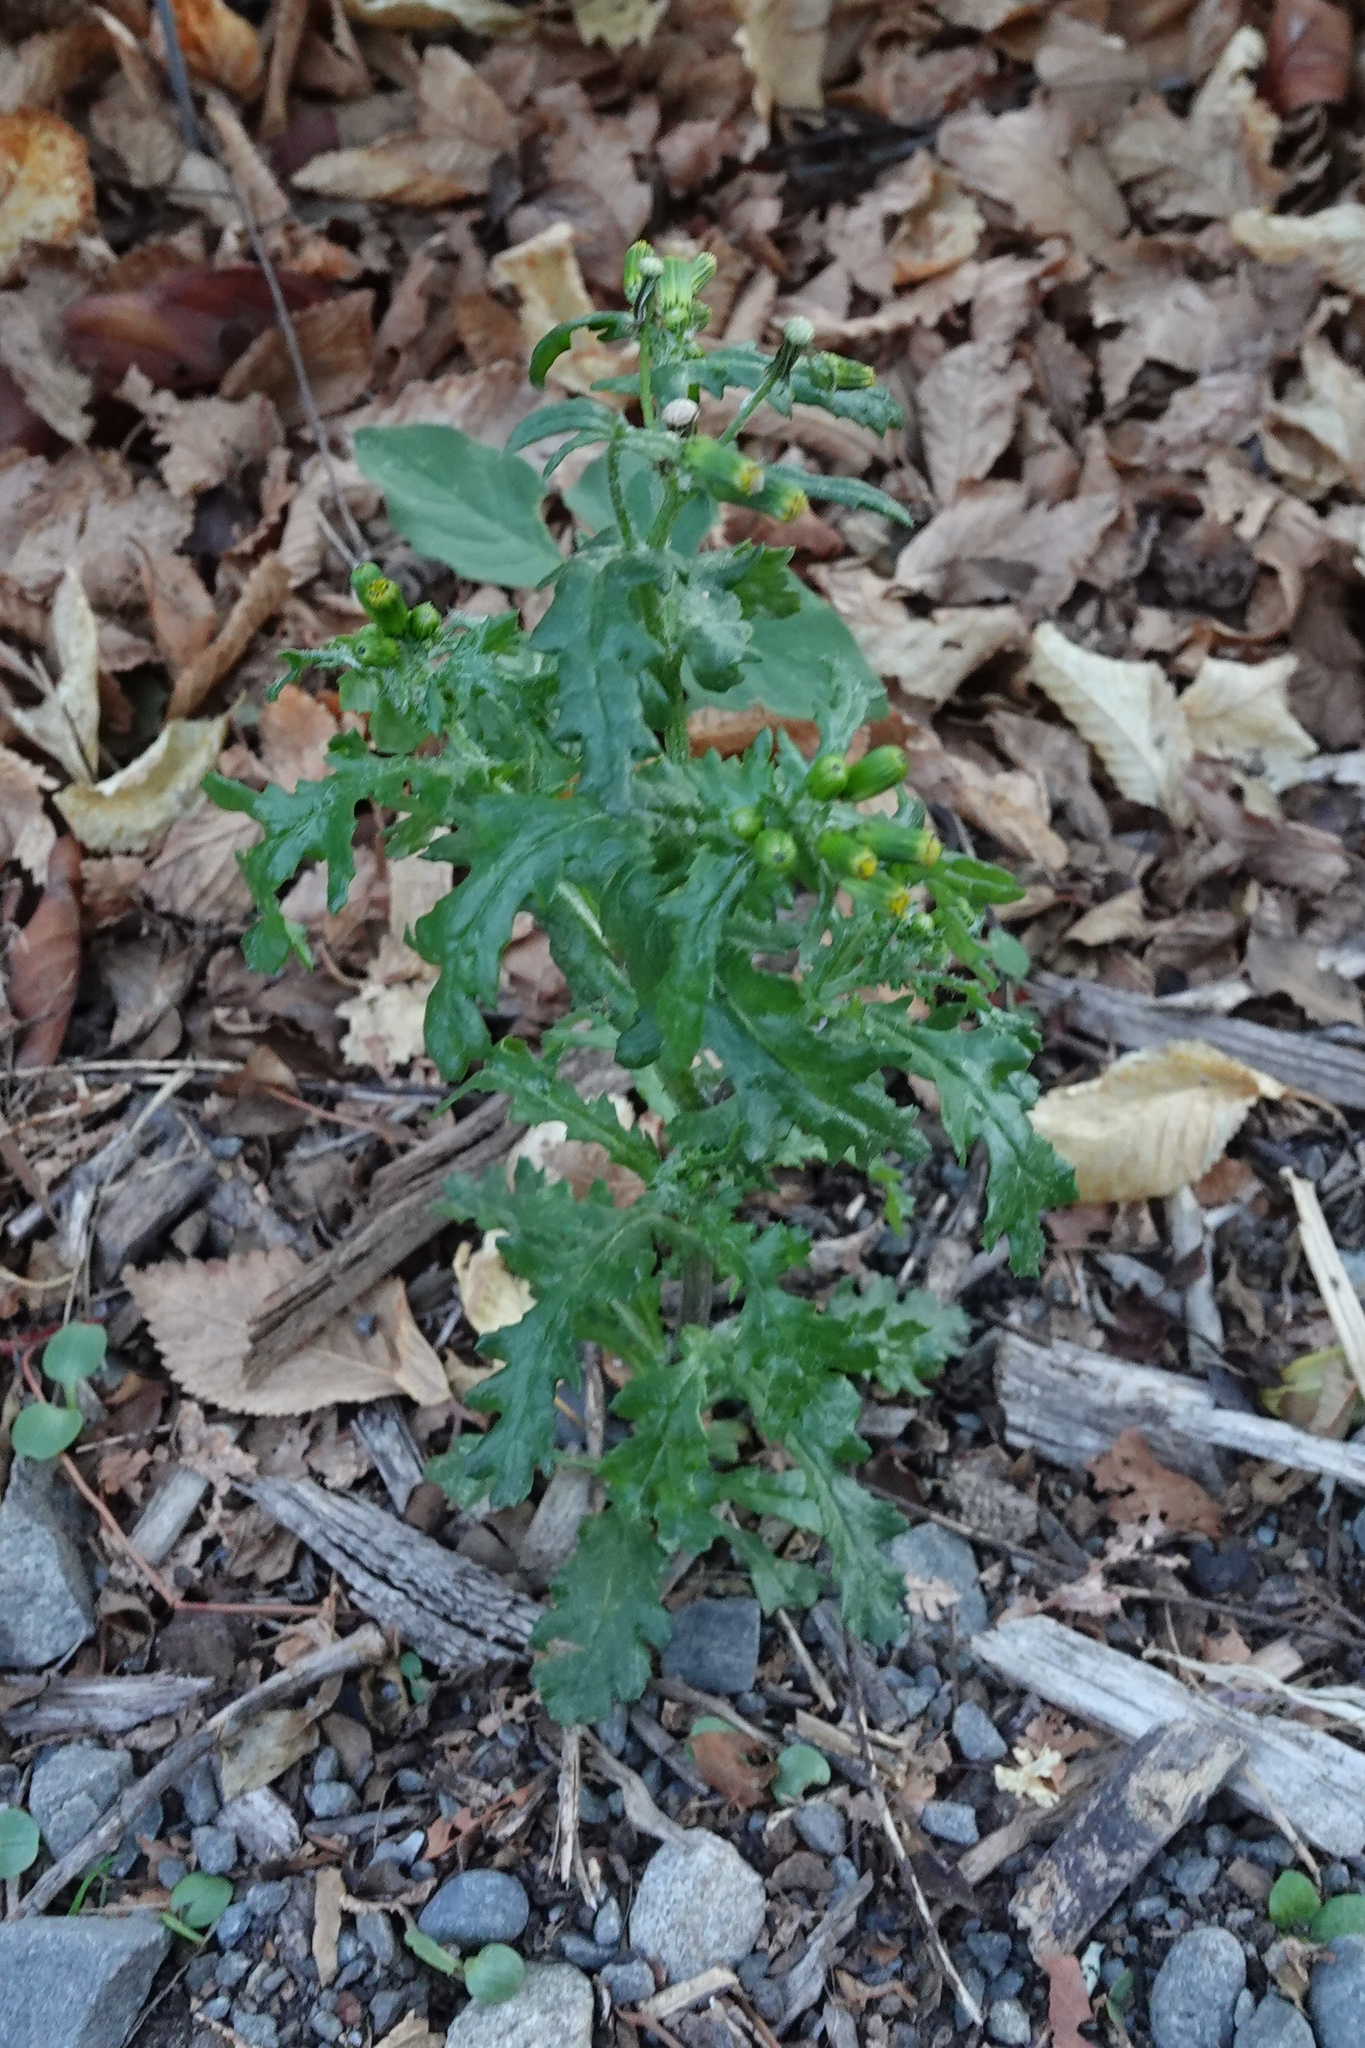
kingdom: Plantae
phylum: Tracheophyta
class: Magnoliopsida
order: Asterales
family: Asteraceae
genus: Senecio
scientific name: Senecio vulgaris
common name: Old-man-in-the-spring
